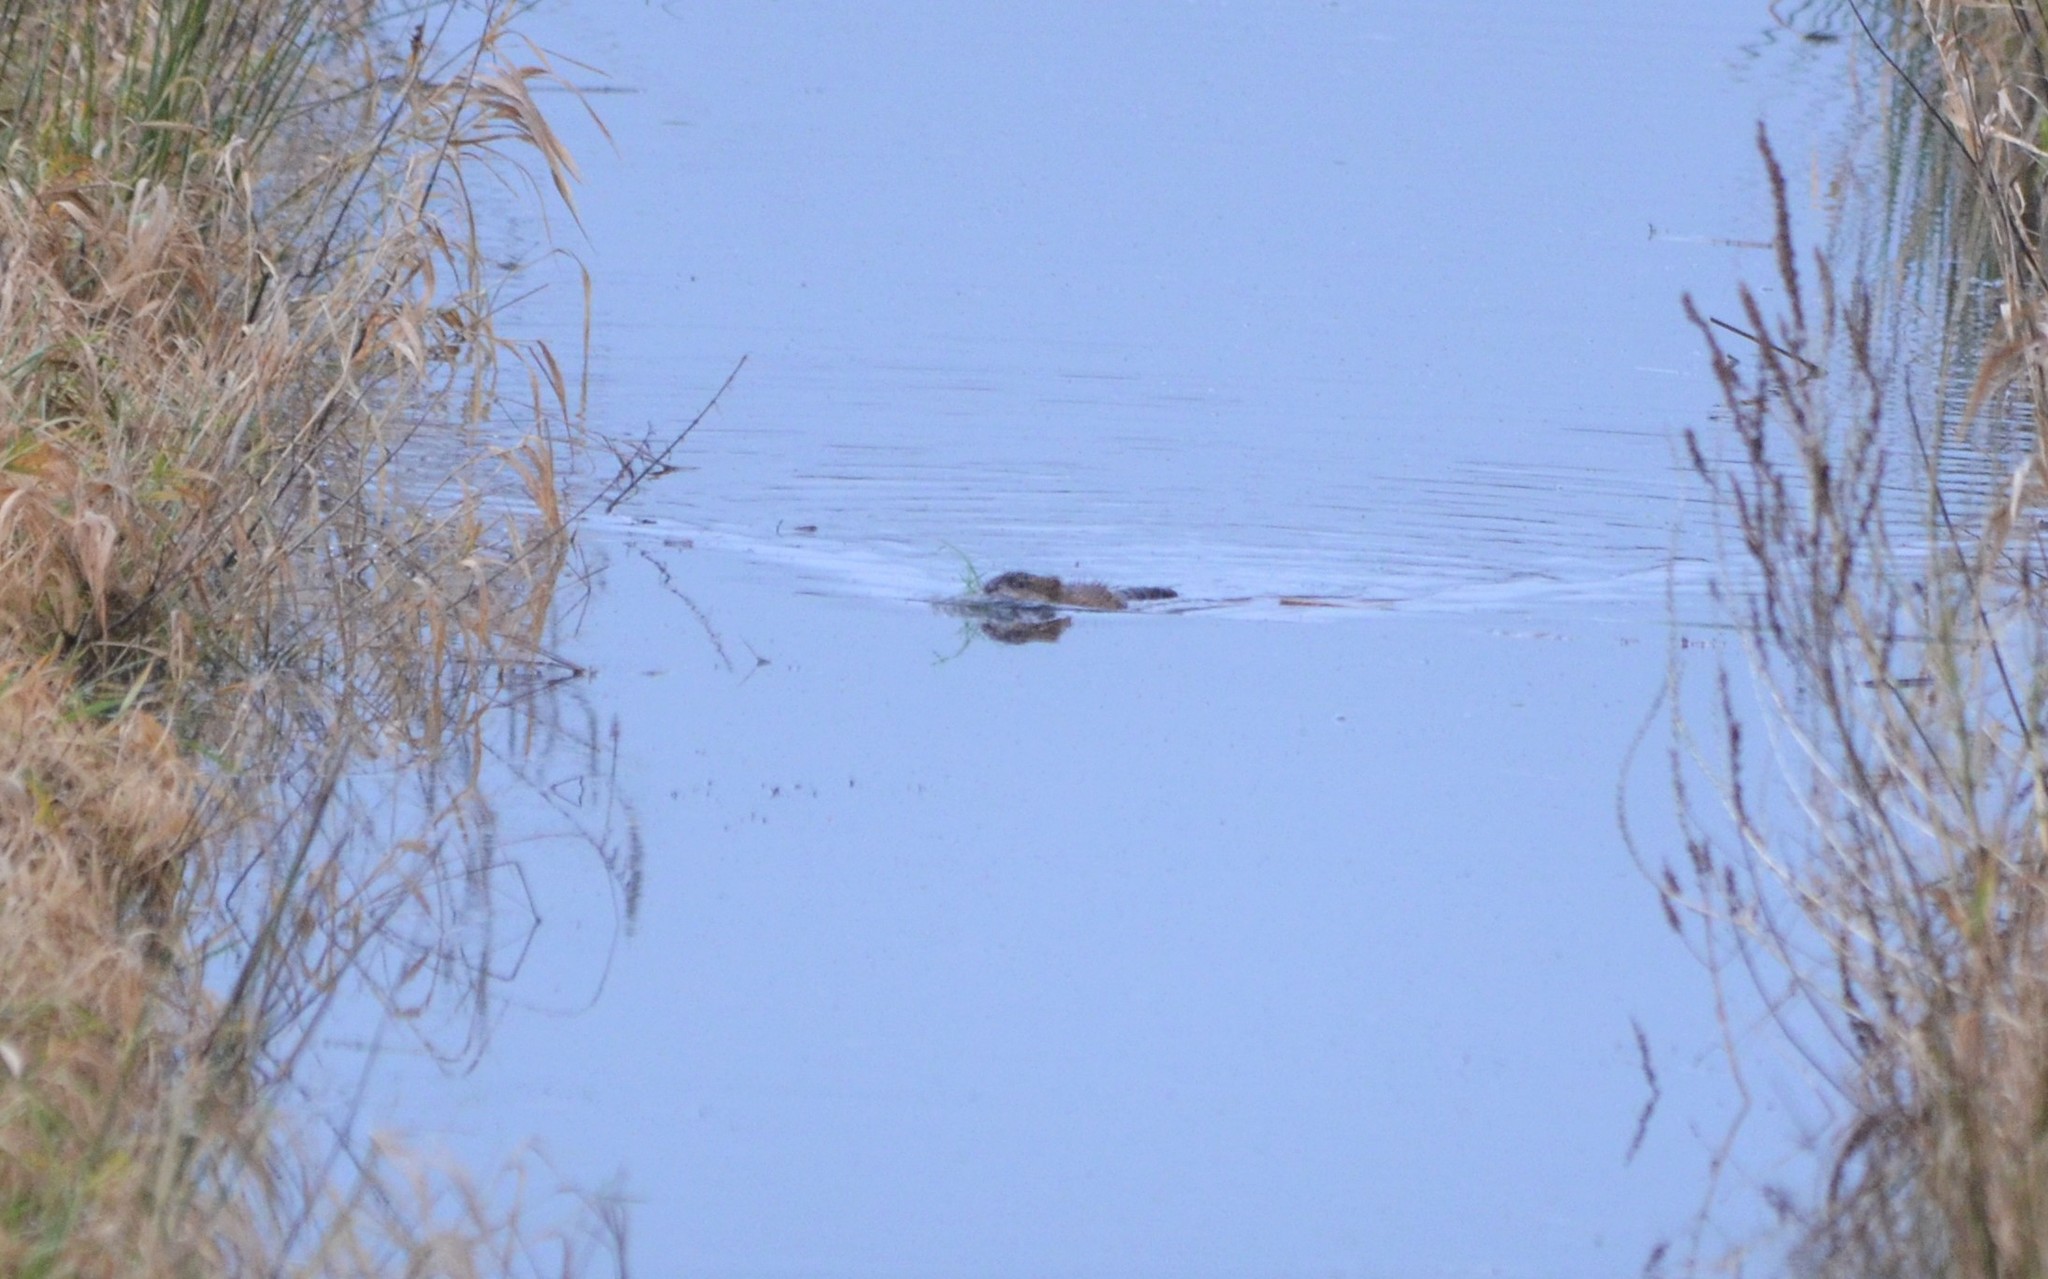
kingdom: Animalia
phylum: Chordata
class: Mammalia
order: Rodentia
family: Cricetidae
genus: Ondatra
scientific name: Ondatra zibethicus
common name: Muskrat
